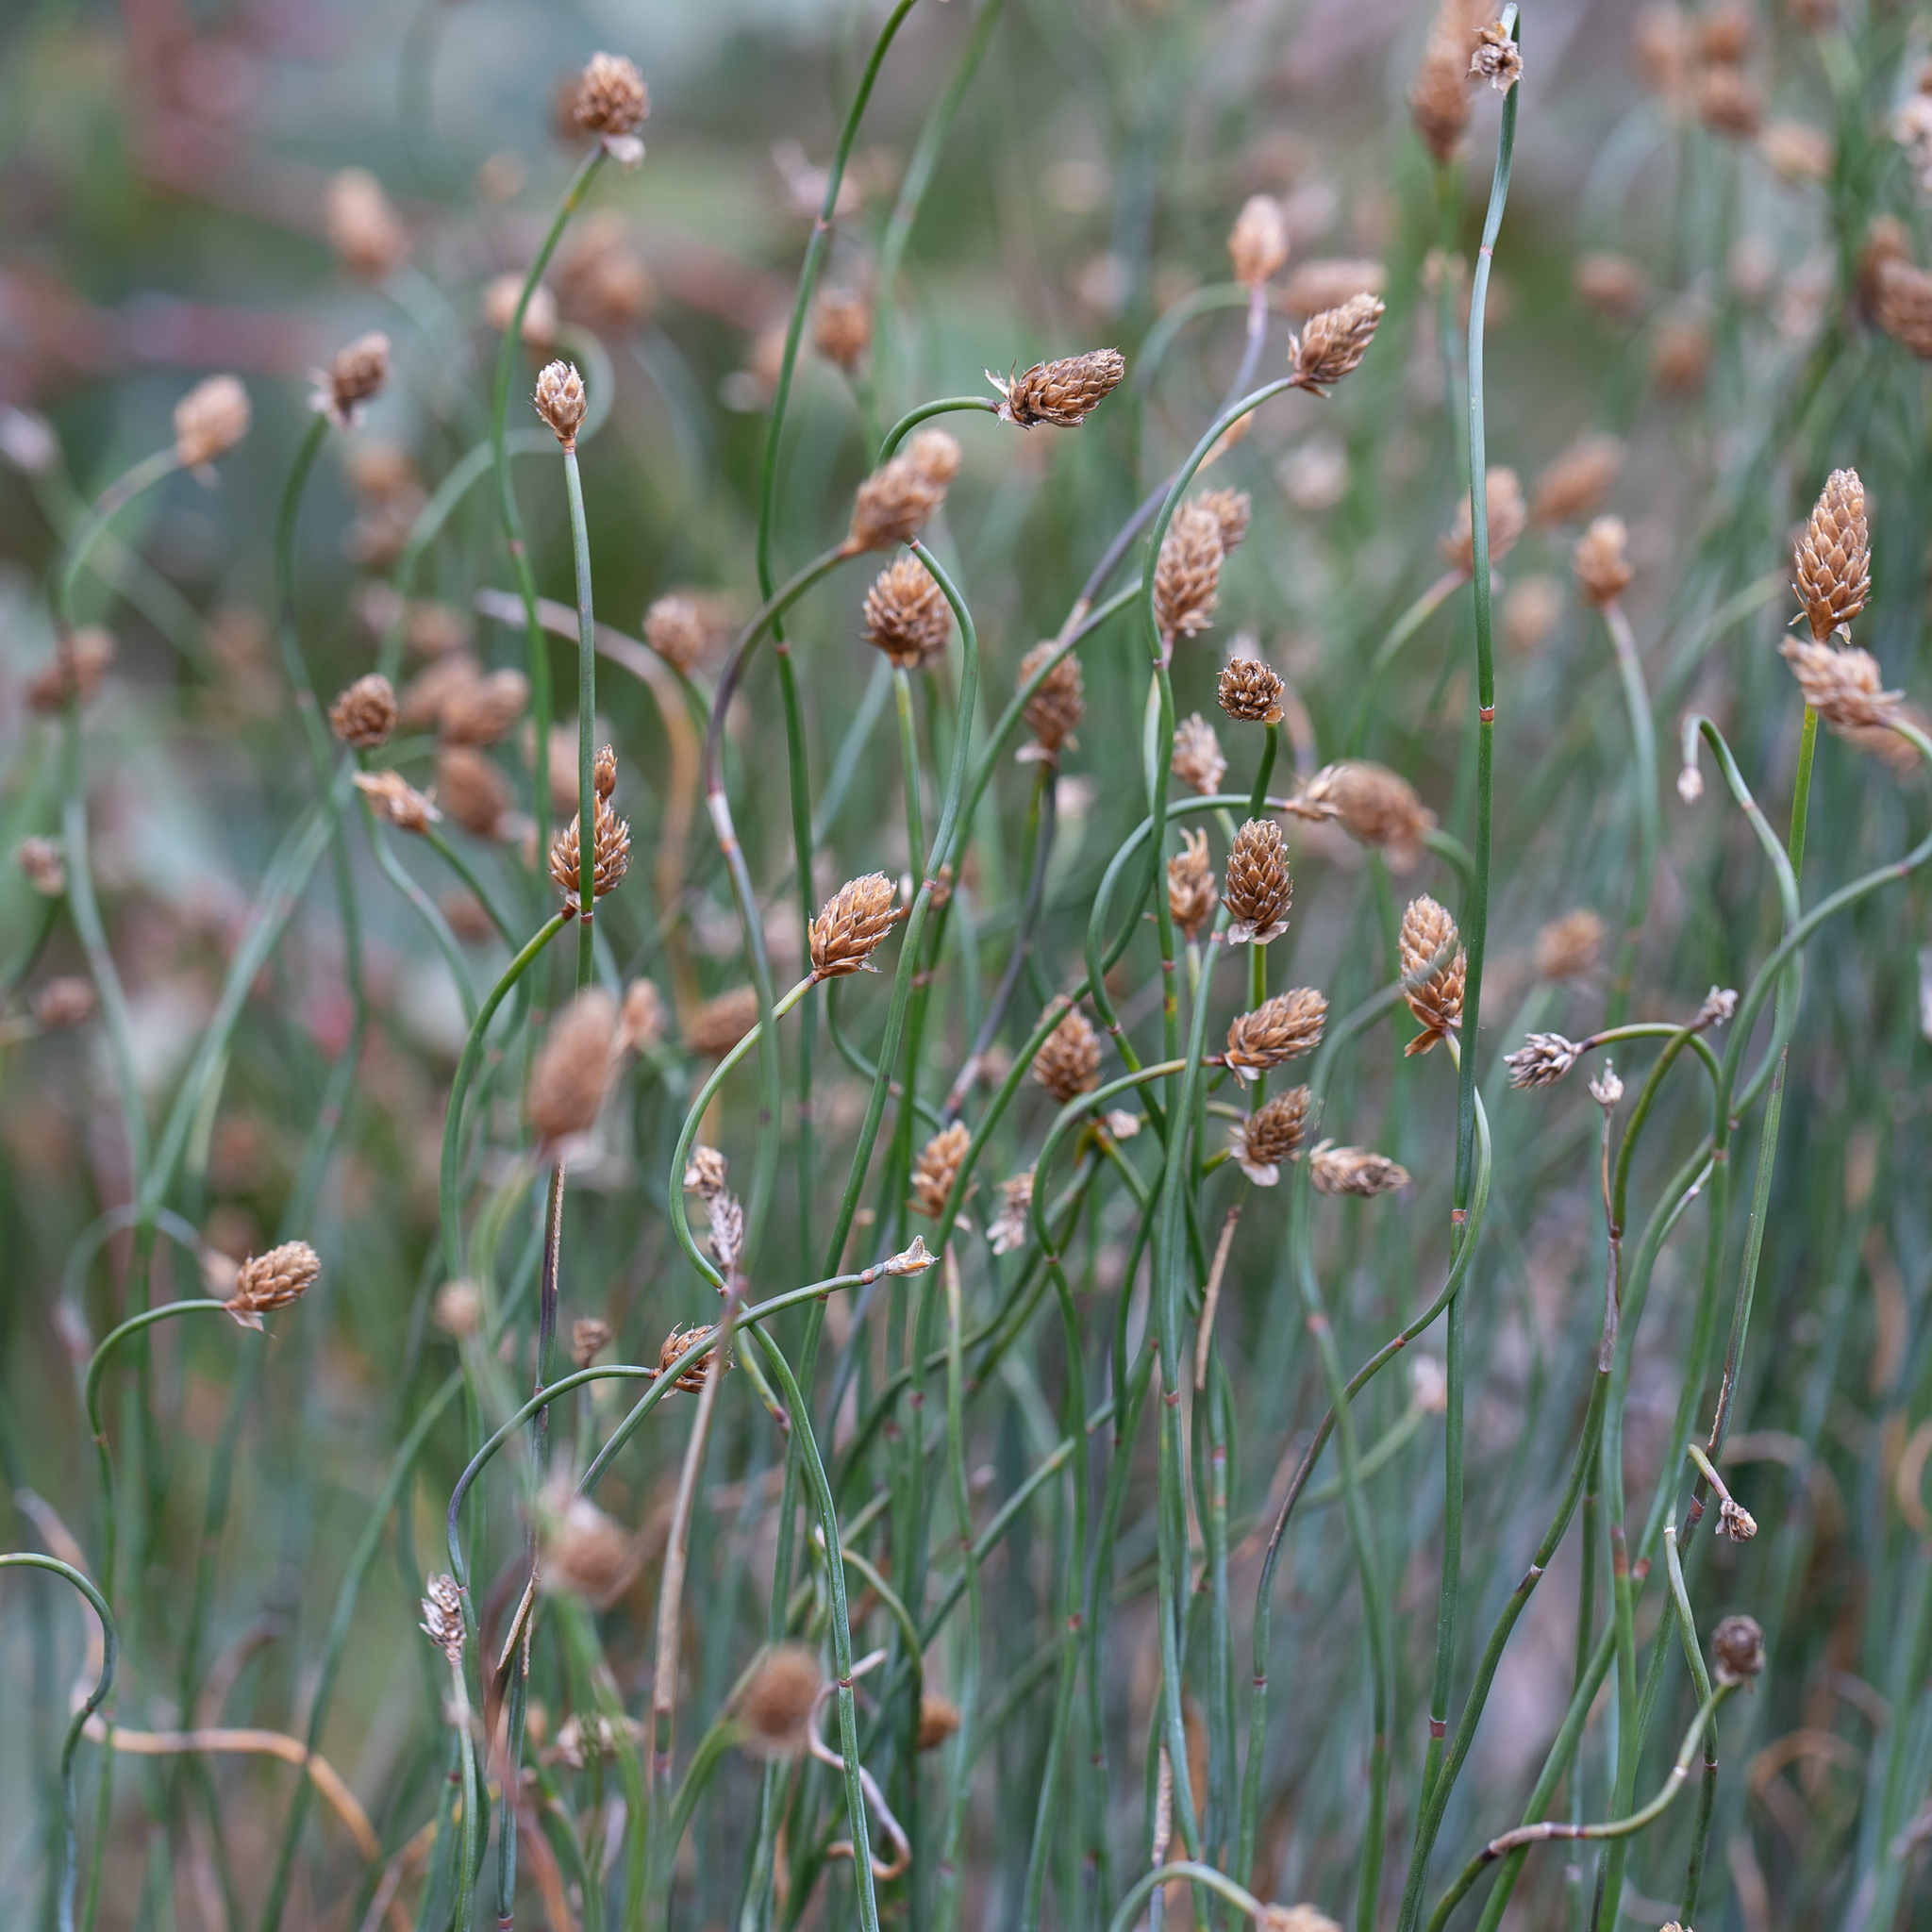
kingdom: Plantae
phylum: Tracheophyta
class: Liliopsida
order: Poales
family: Restionaceae
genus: Lepidobolus
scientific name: Lepidobolus drapetocoleus
